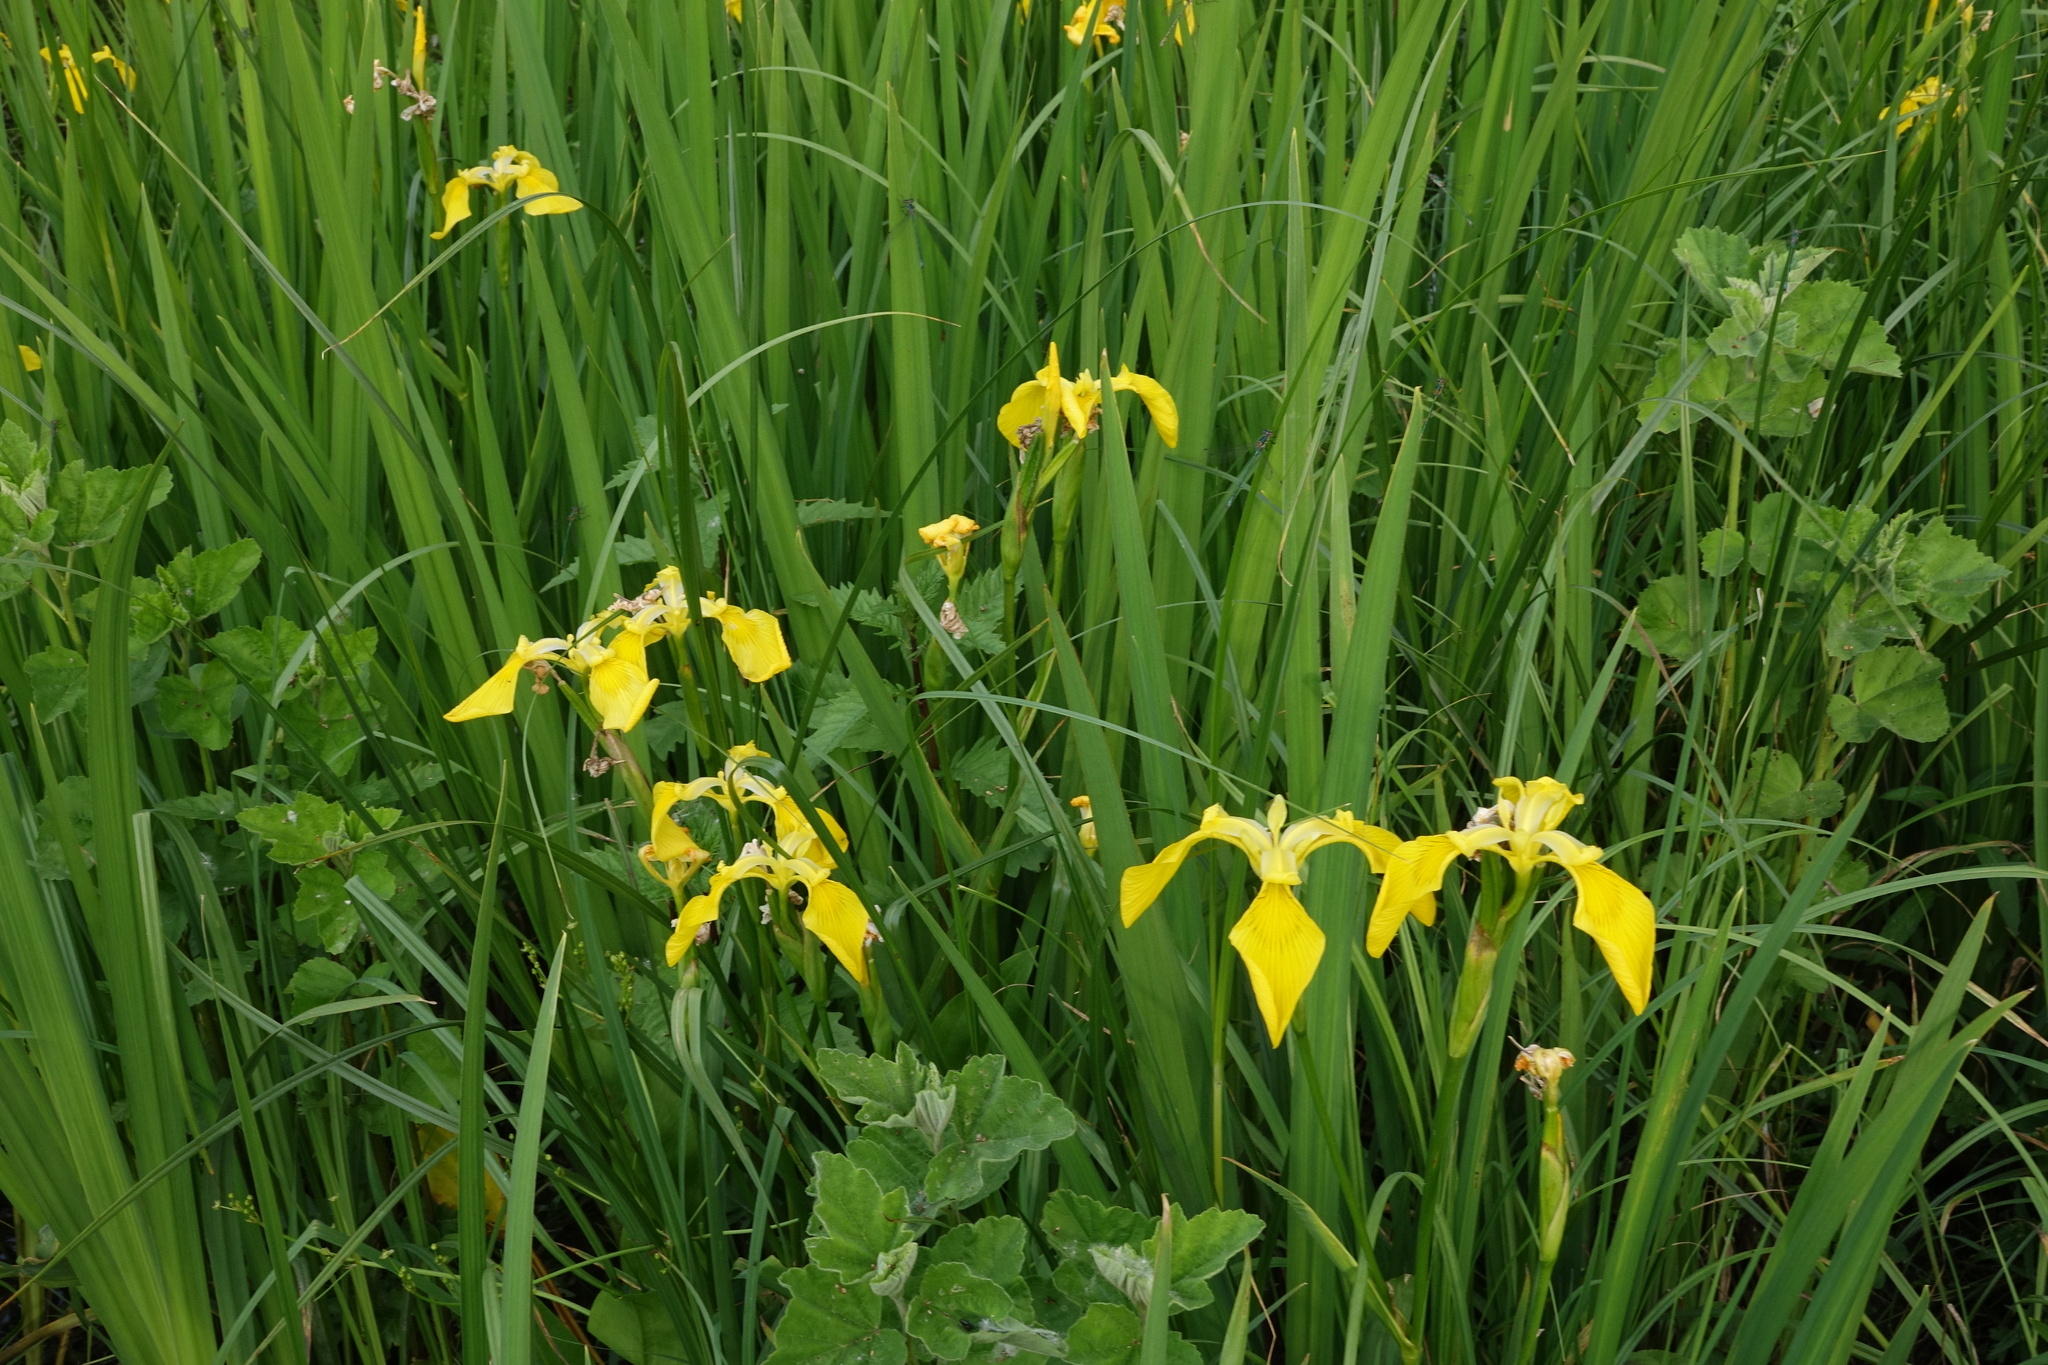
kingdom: Plantae
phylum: Tracheophyta
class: Liliopsida
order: Asparagales
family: Iridaceae
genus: Iris
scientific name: Iris pseudacorus
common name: Yellow flag
